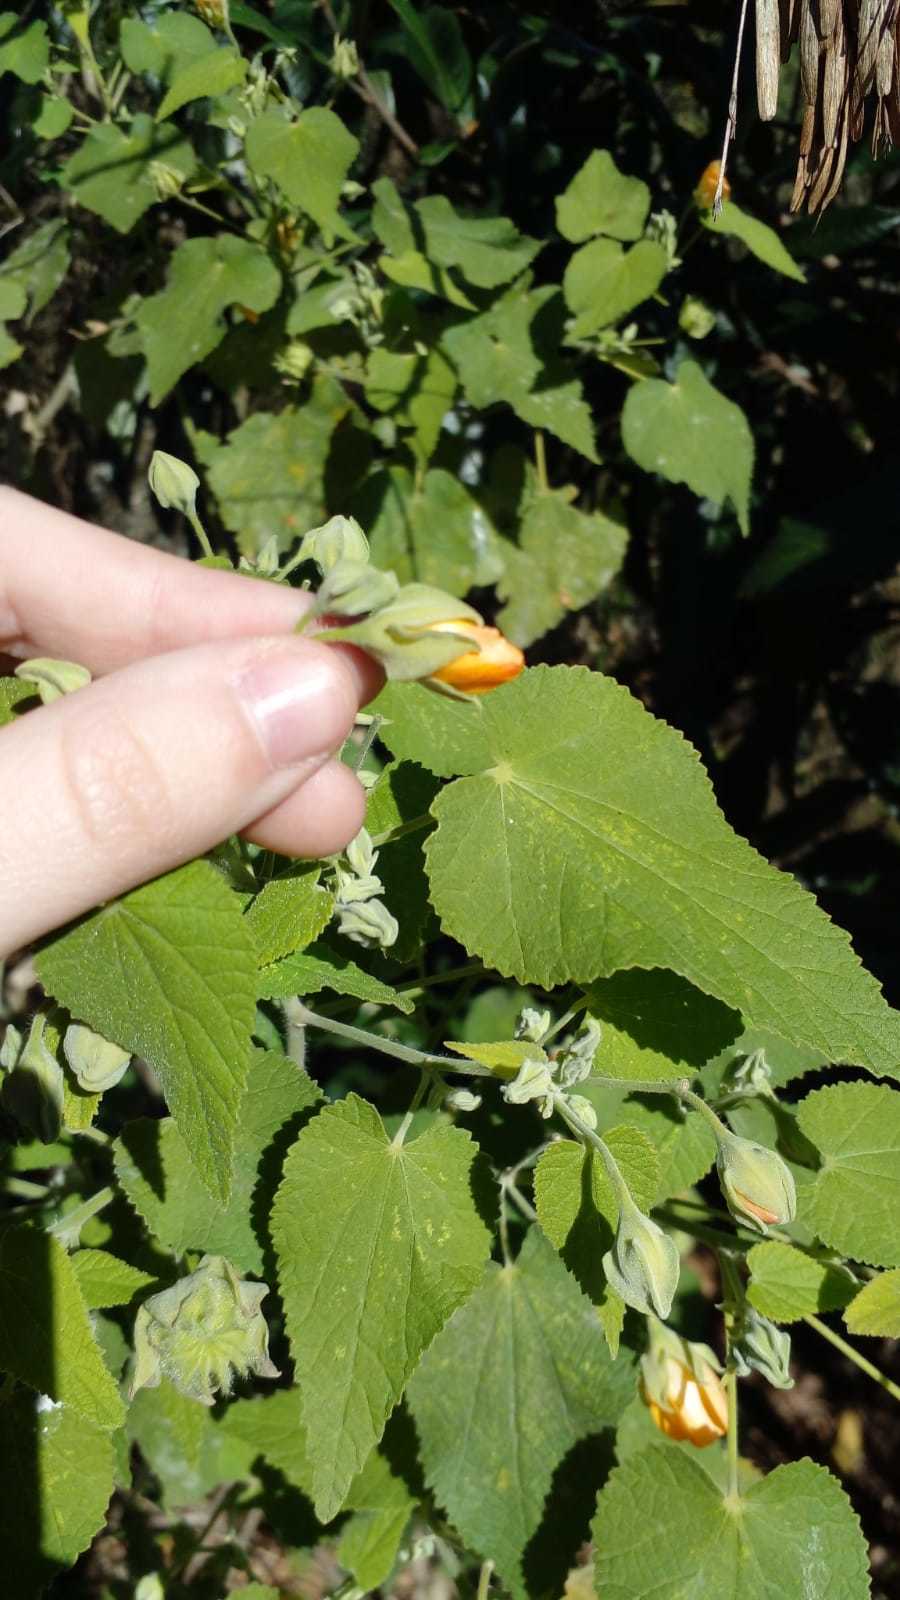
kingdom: Plantae
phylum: Tracheophyta
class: Magnoliopsida
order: Malvales
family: Malvaceae
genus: Abutilon
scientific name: Abutilon grandifolium
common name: Hairy abutilon
